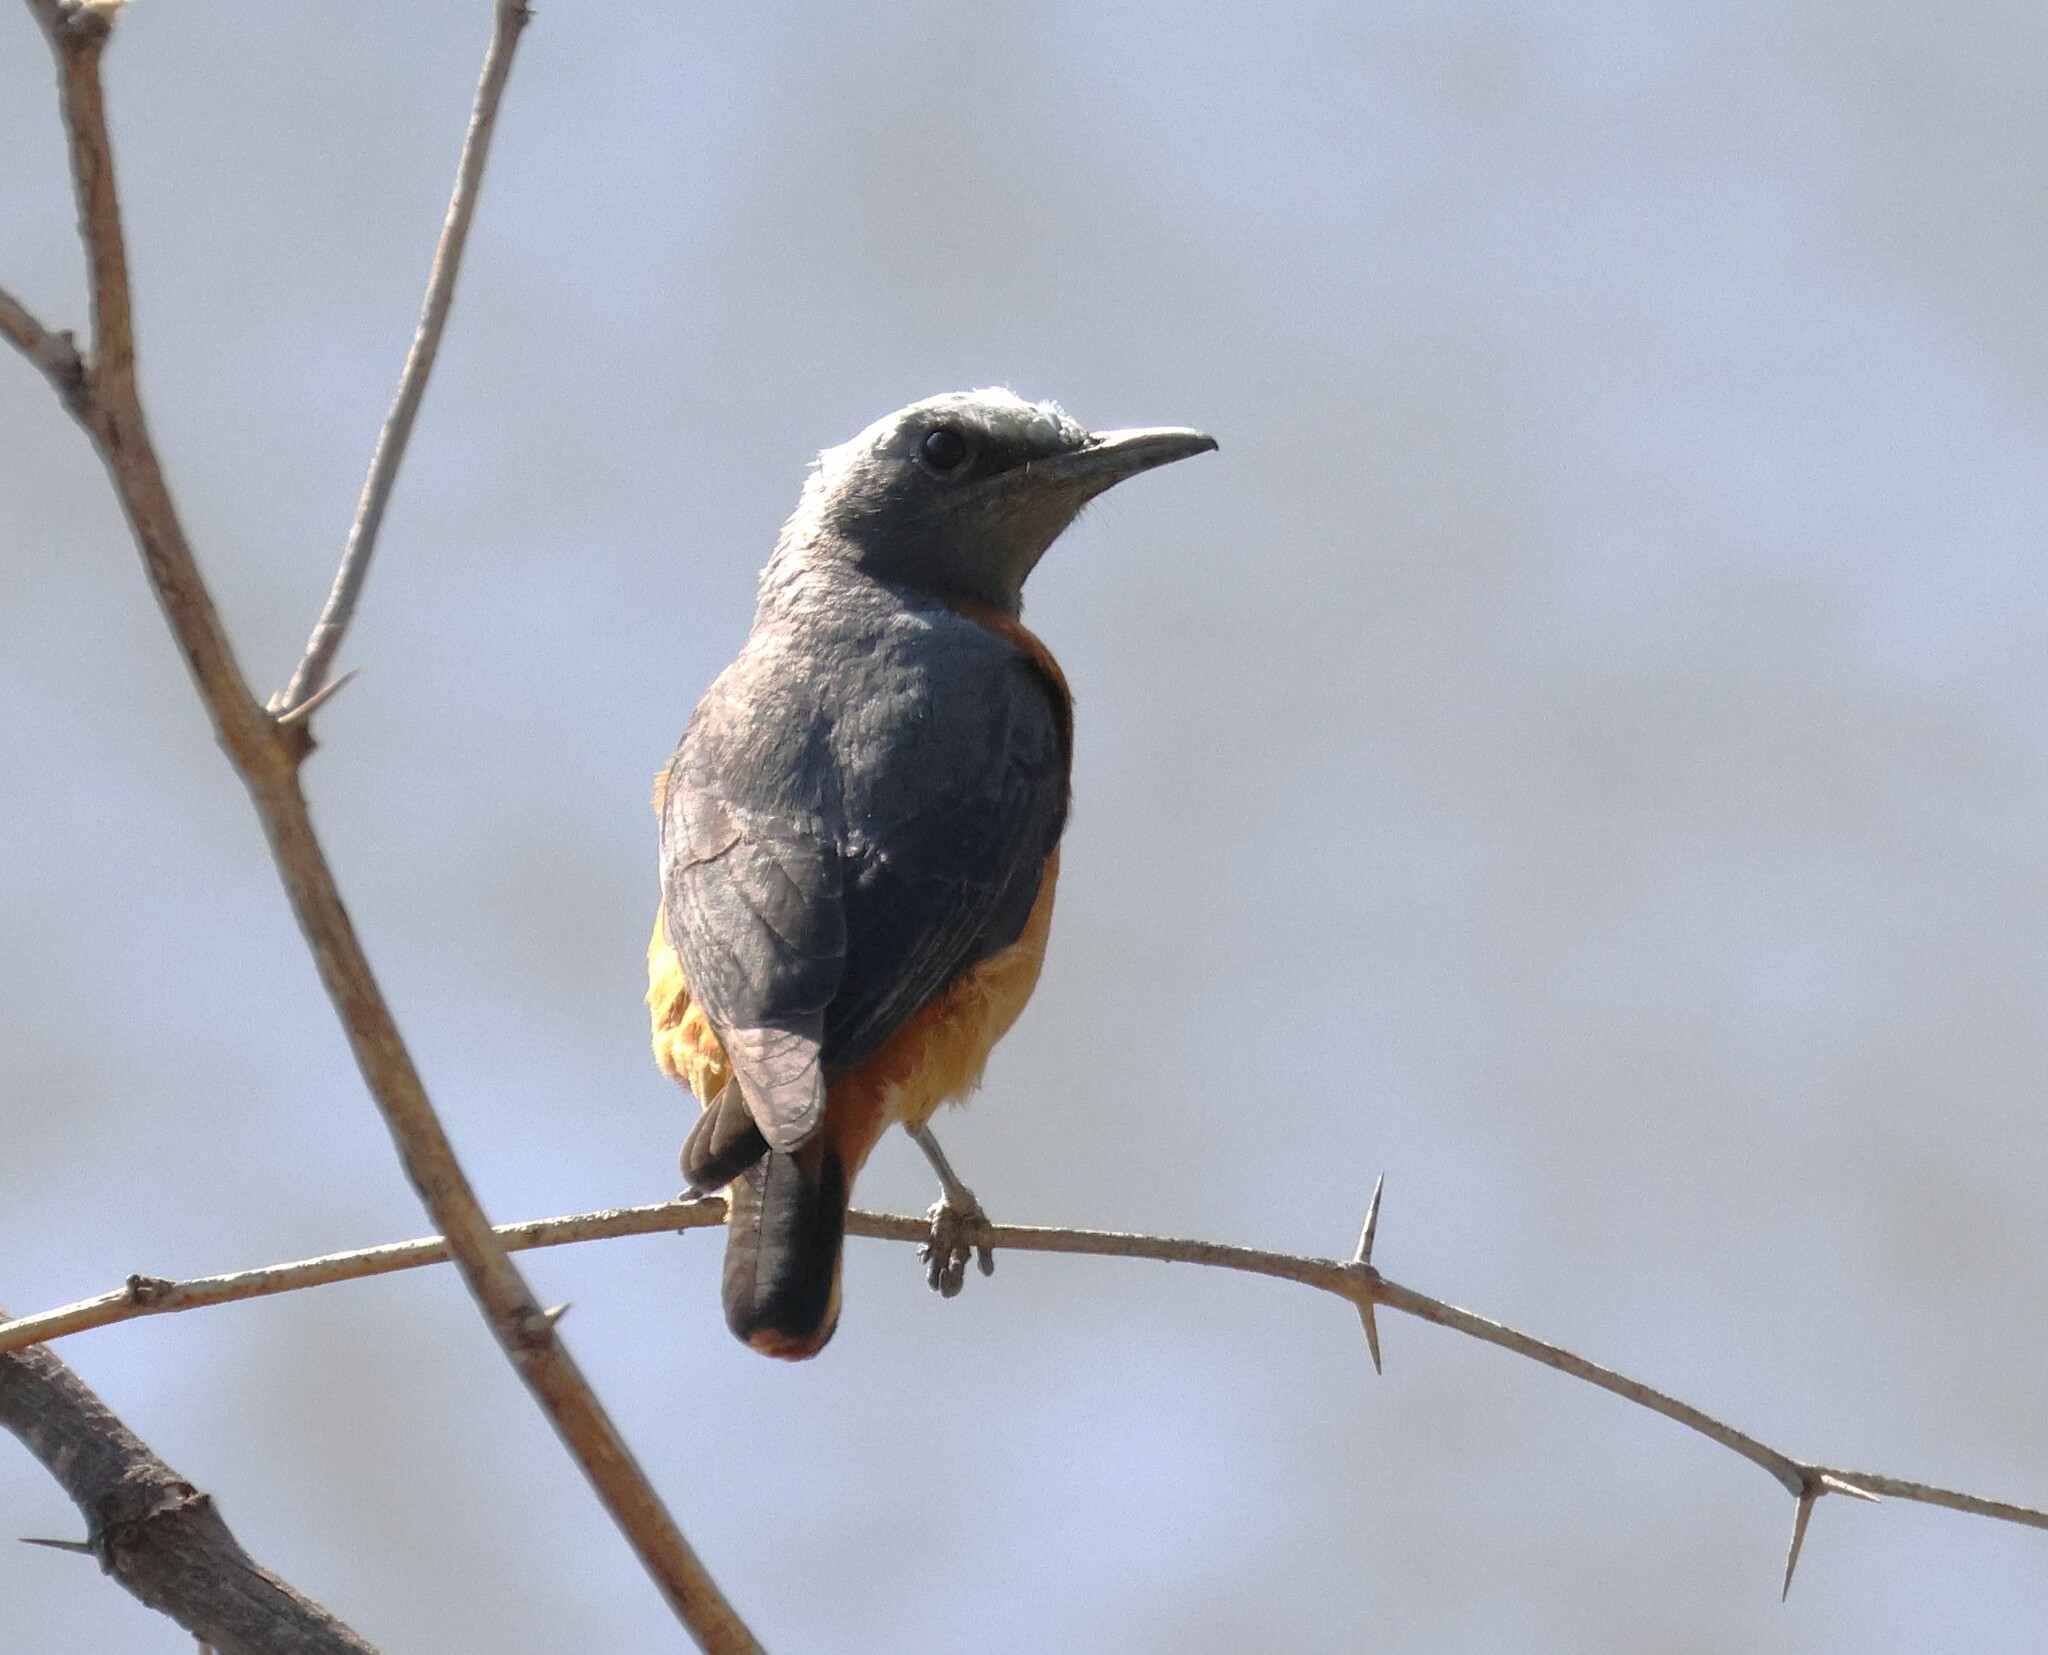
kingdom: Animalia
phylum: Chordata
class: Aves
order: Passeriformes
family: Muscicapidae
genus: Monticola
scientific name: Monticola brevipes
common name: Short-toed rock thrush
